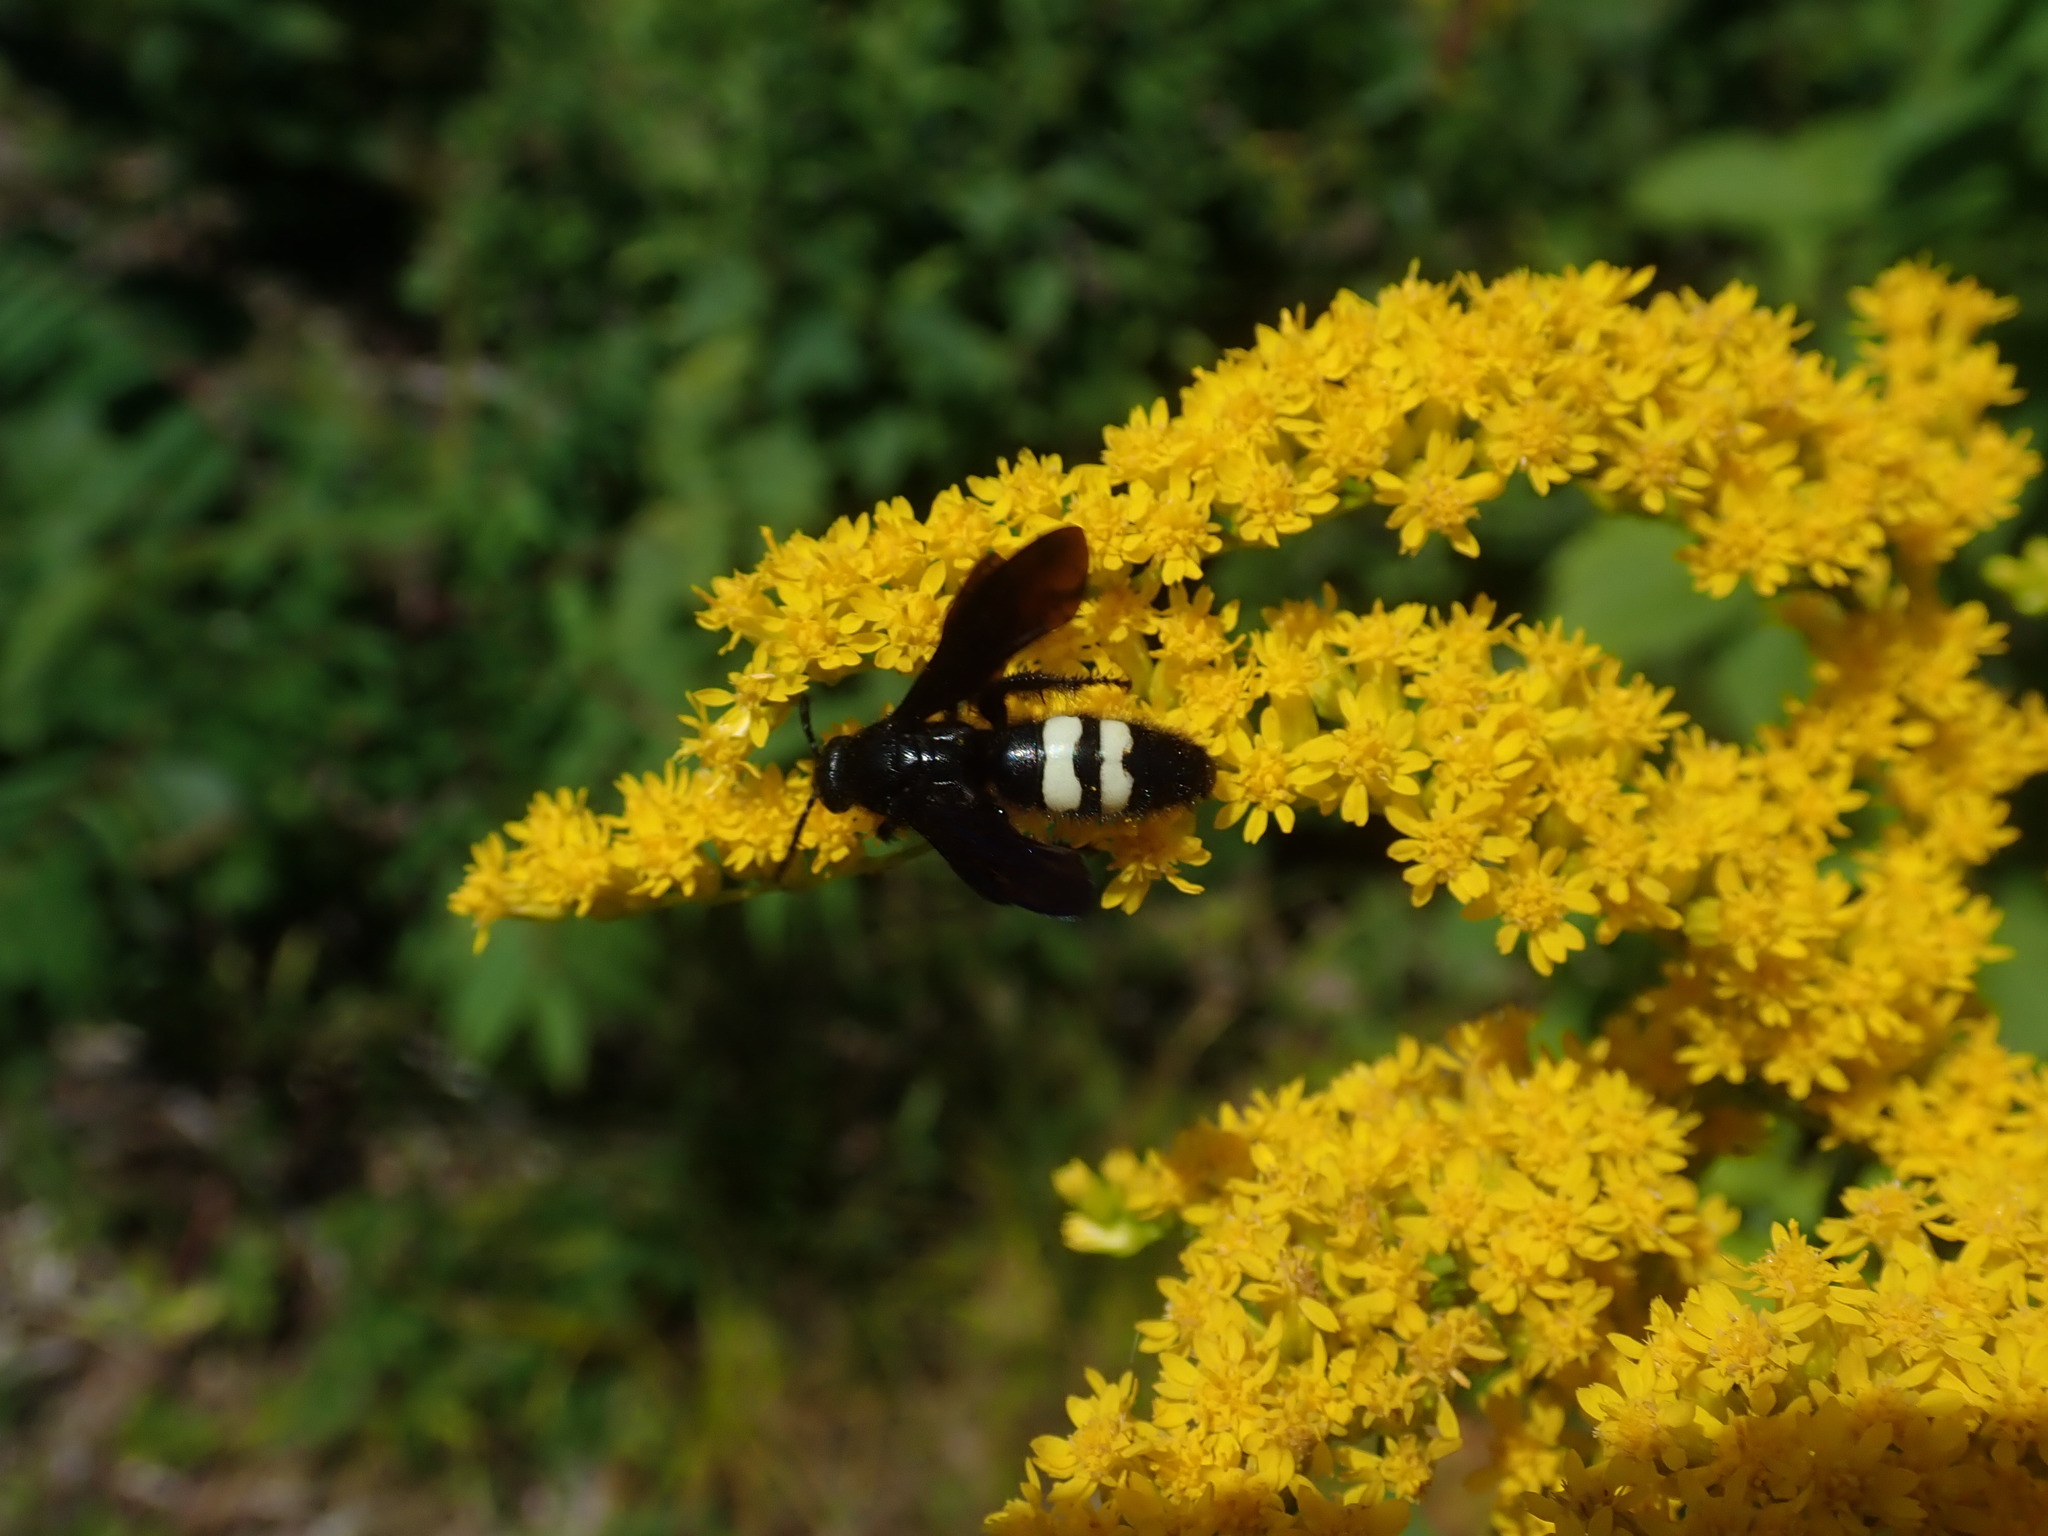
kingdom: Animalia
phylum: Arthropoda
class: Insecta
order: Hymenoptera
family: Scoliidae
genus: Scolia
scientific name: Scolia bicincta
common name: Double-banded scoliid wasp
